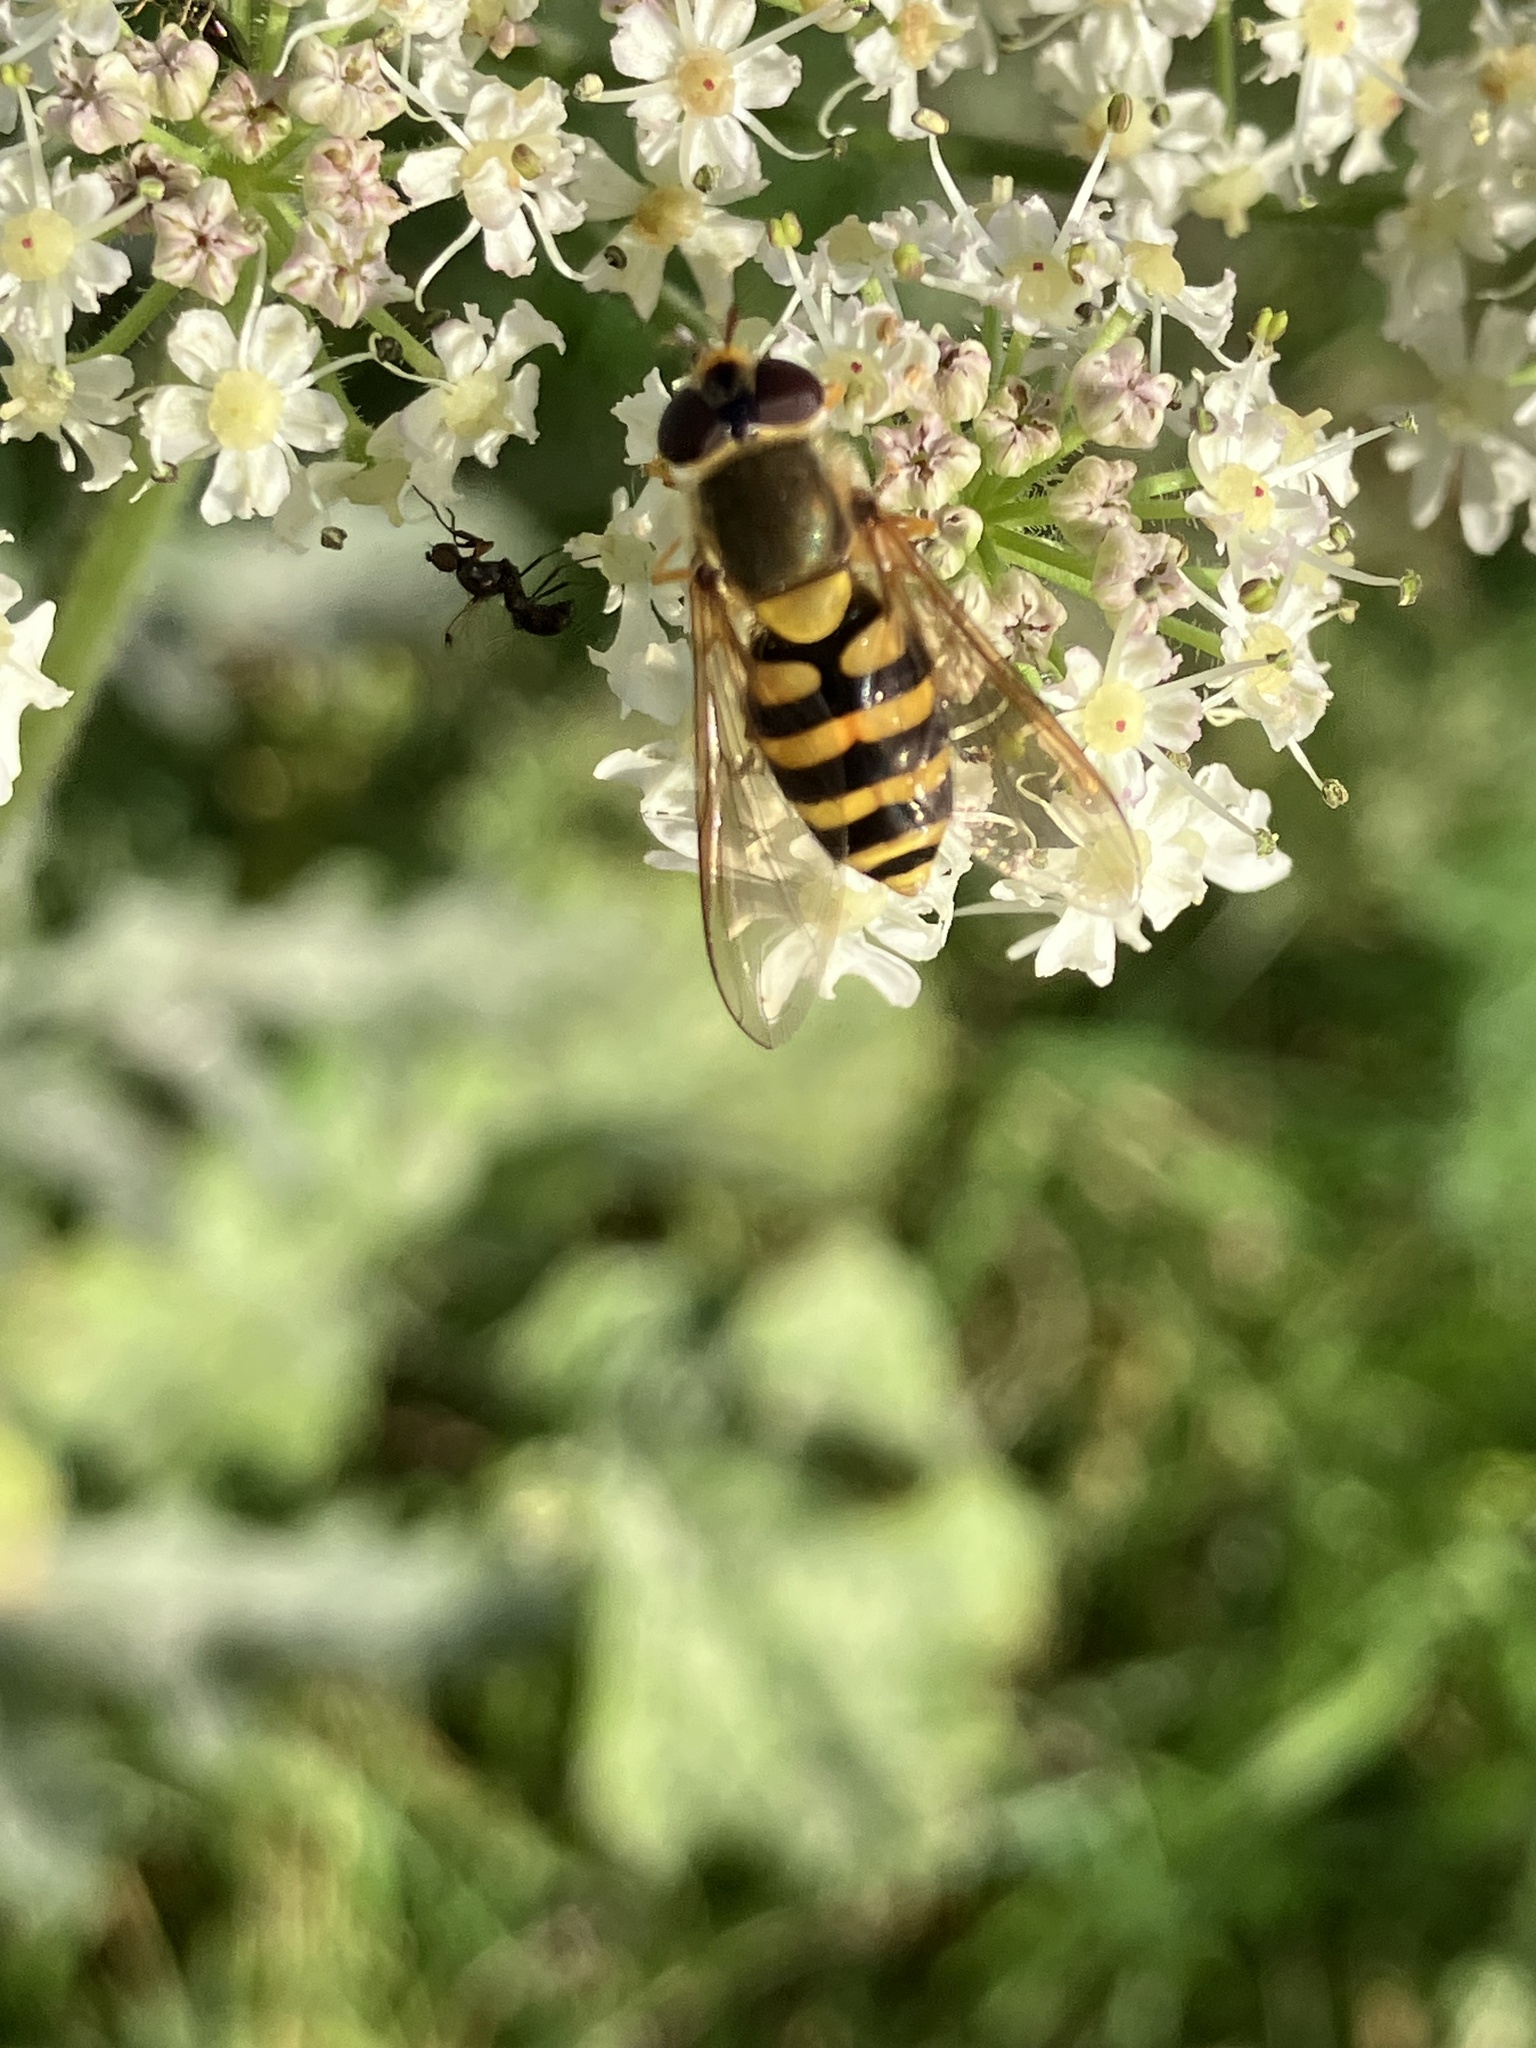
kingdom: Animalia
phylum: Arthropoda
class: Insecta
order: Diptera
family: Syrphidae
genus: Syrphus
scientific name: Syrphus
